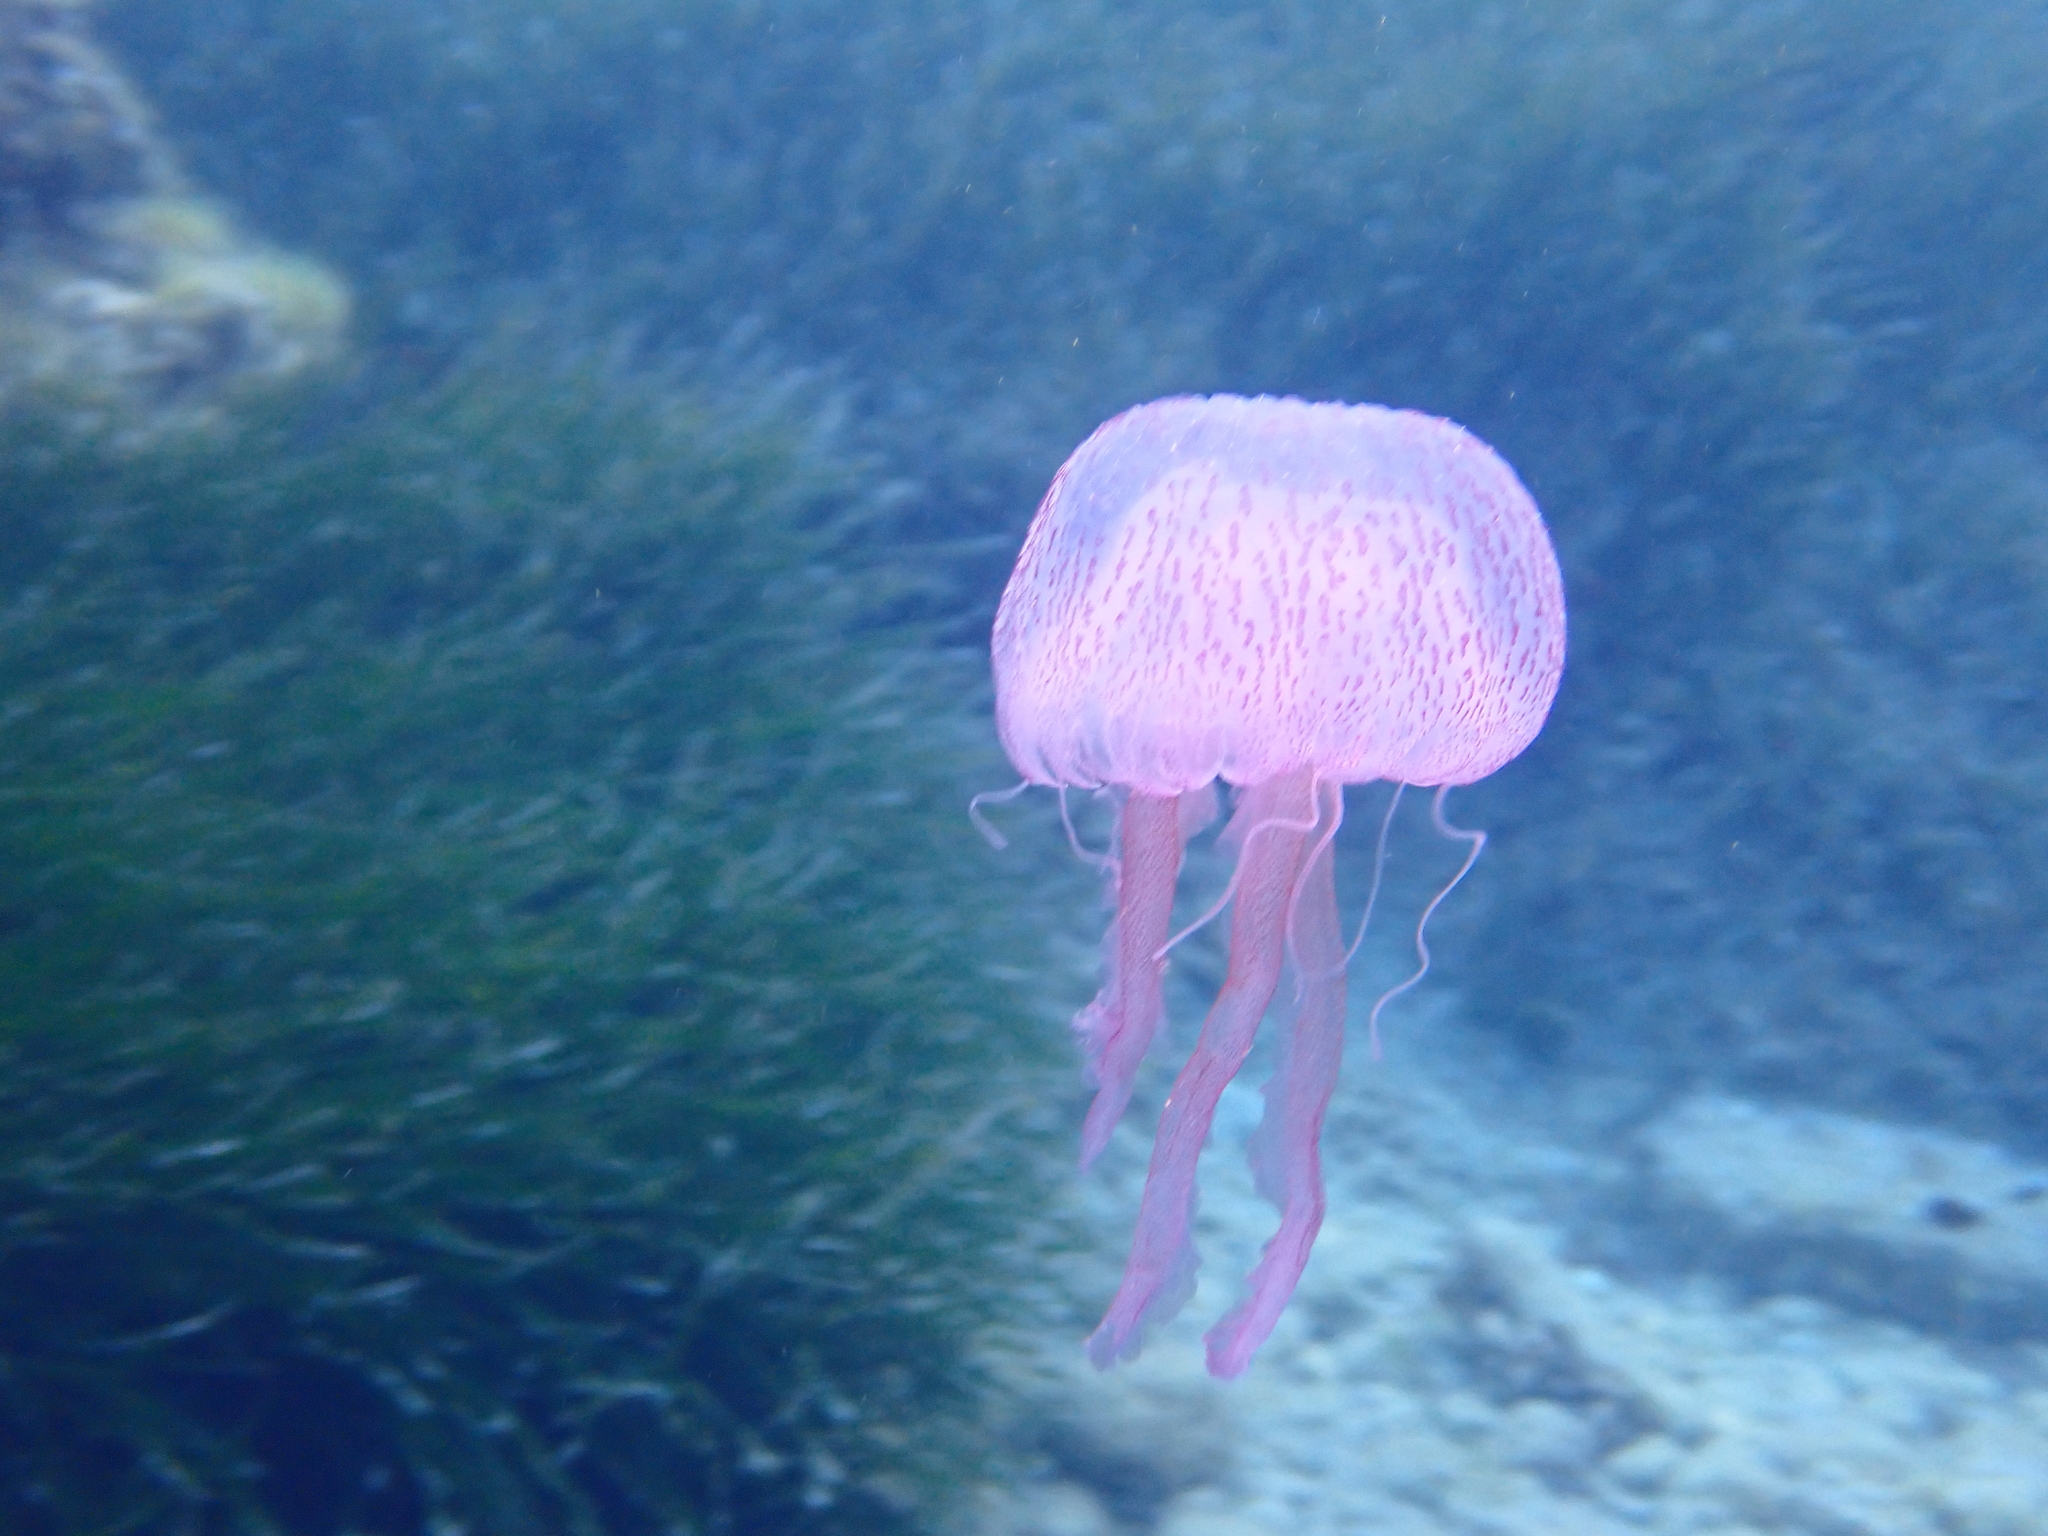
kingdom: Animalia
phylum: Cnidaria
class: Scyphozoa
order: Semaeostomeae
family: Pelagiidae
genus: Pelagia
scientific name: Pelagia noctiluca
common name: Mauve stinger
